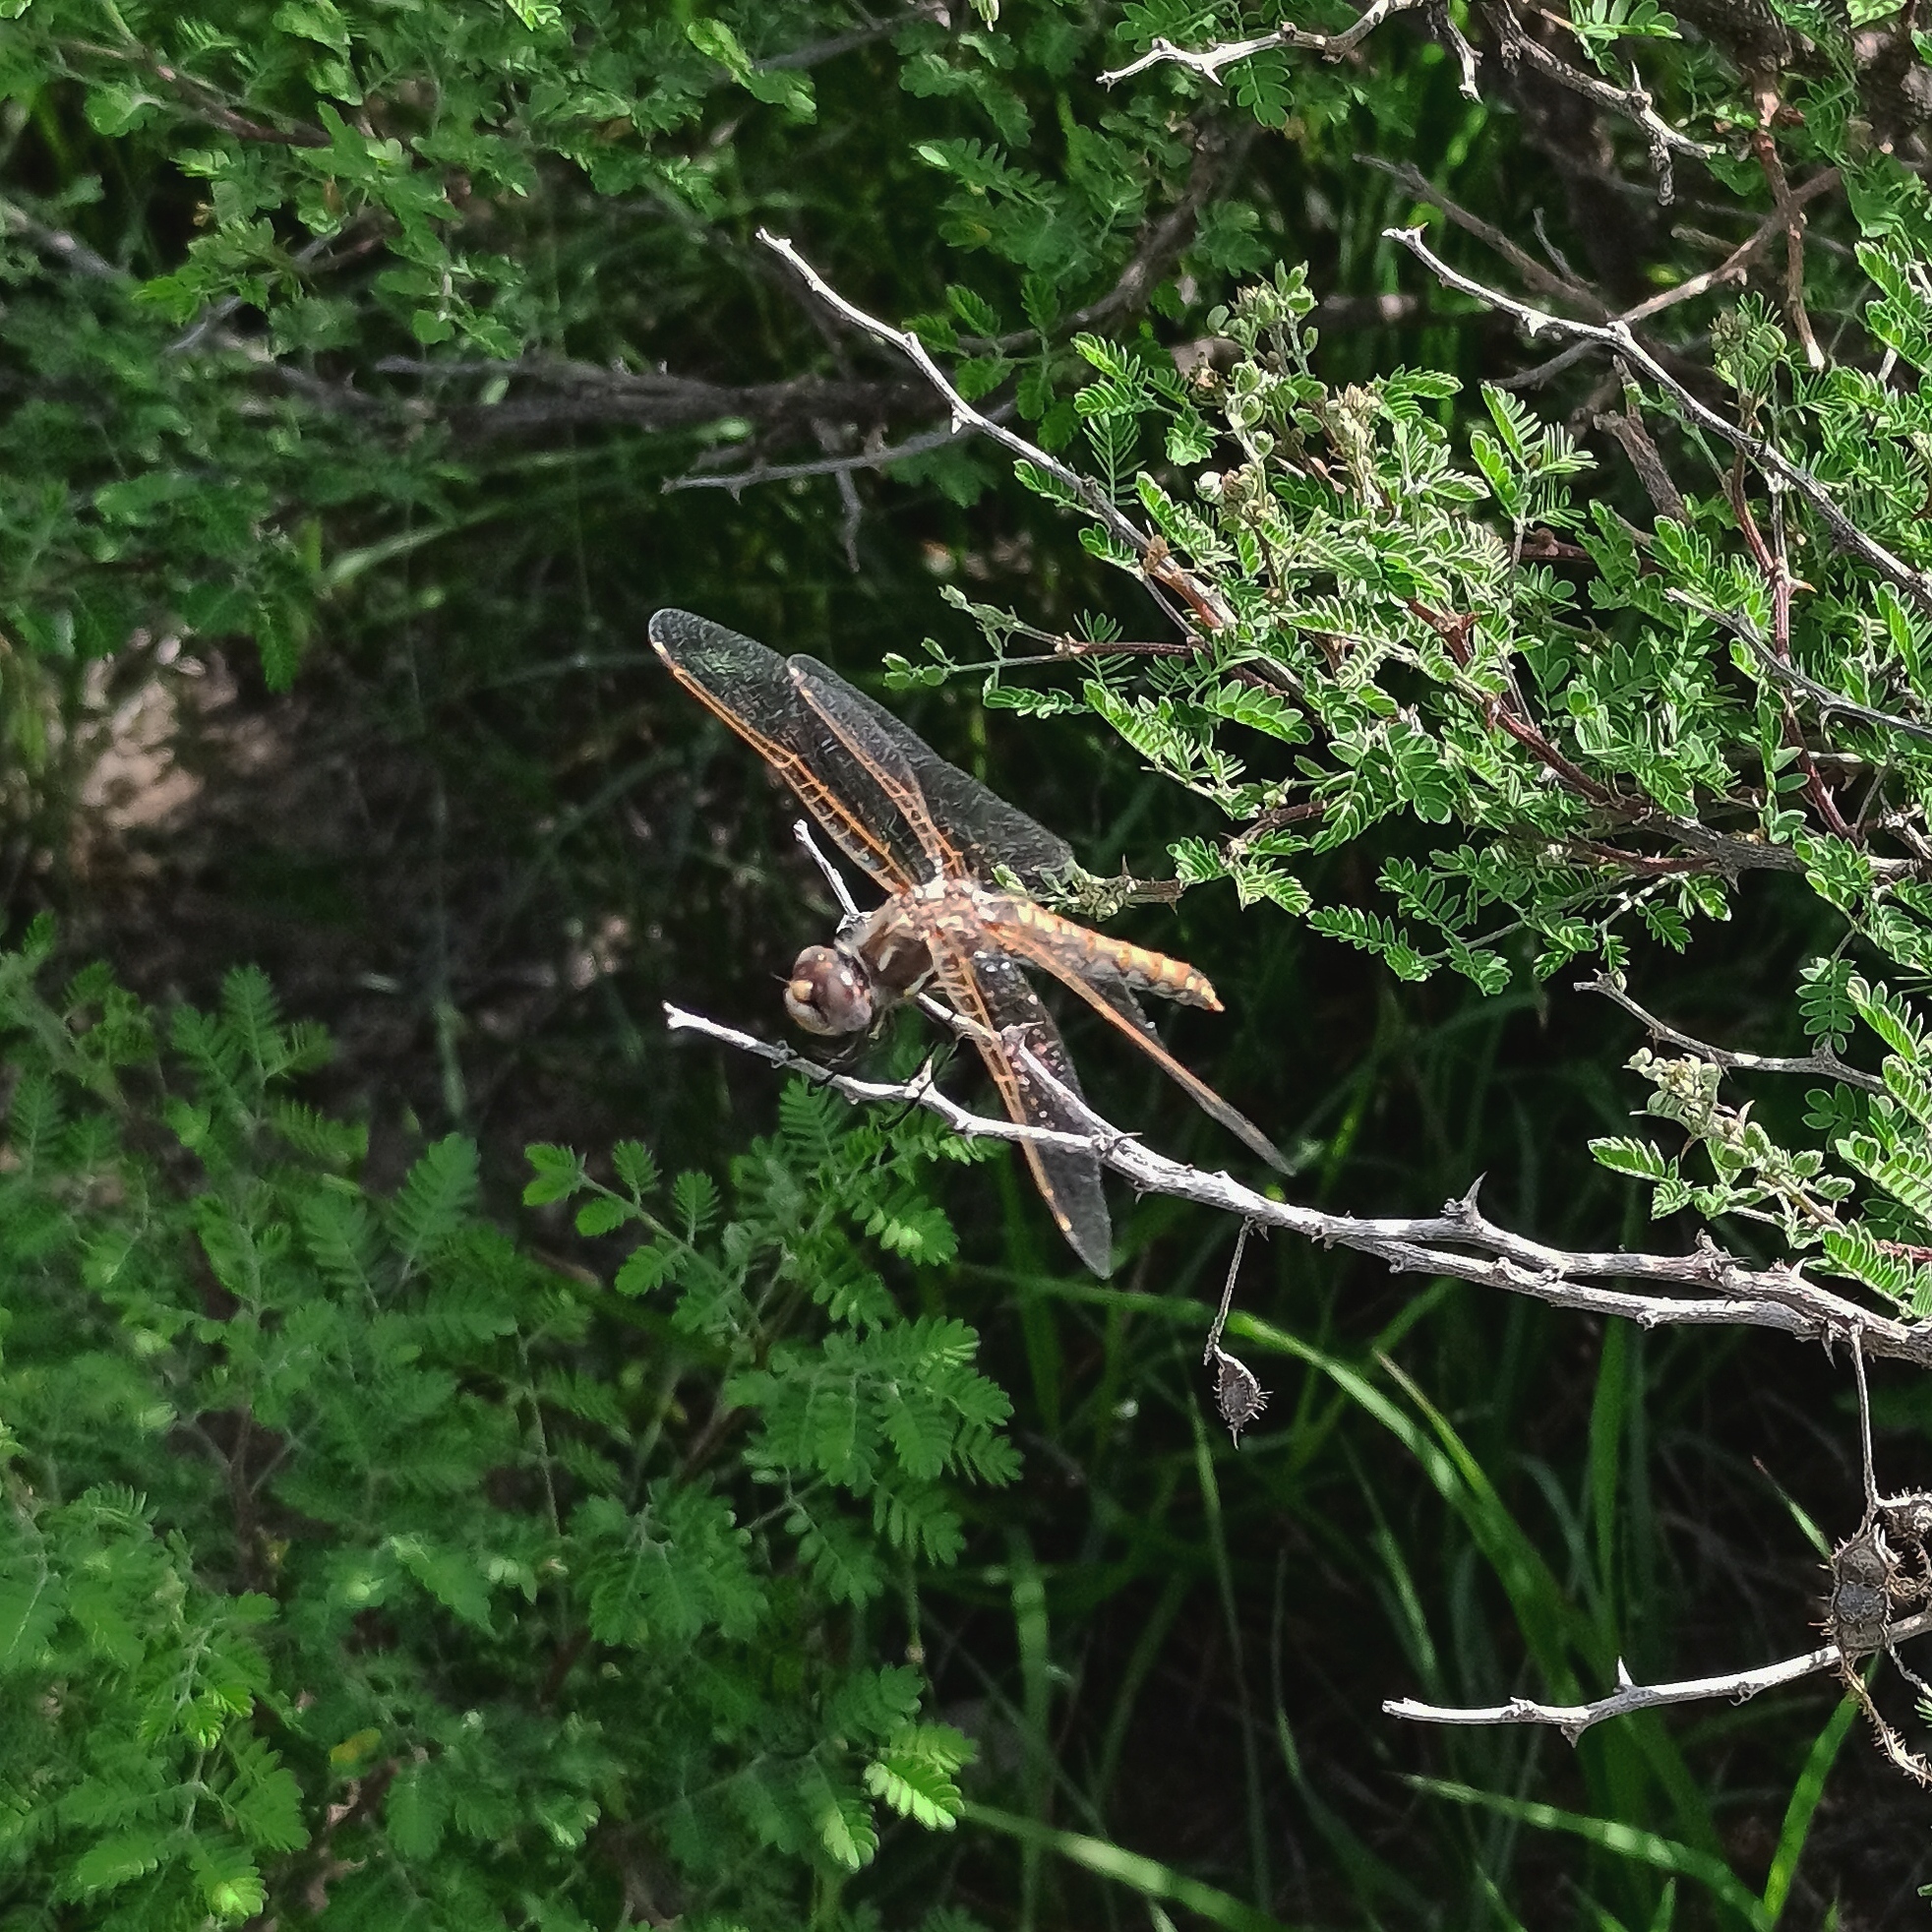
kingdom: Animalia
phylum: Arthropoda
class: Insecta
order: Odonata
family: Libellulidae
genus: Sympetrum
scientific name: Sympetrum corruptum
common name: Variegated meadowhawk
